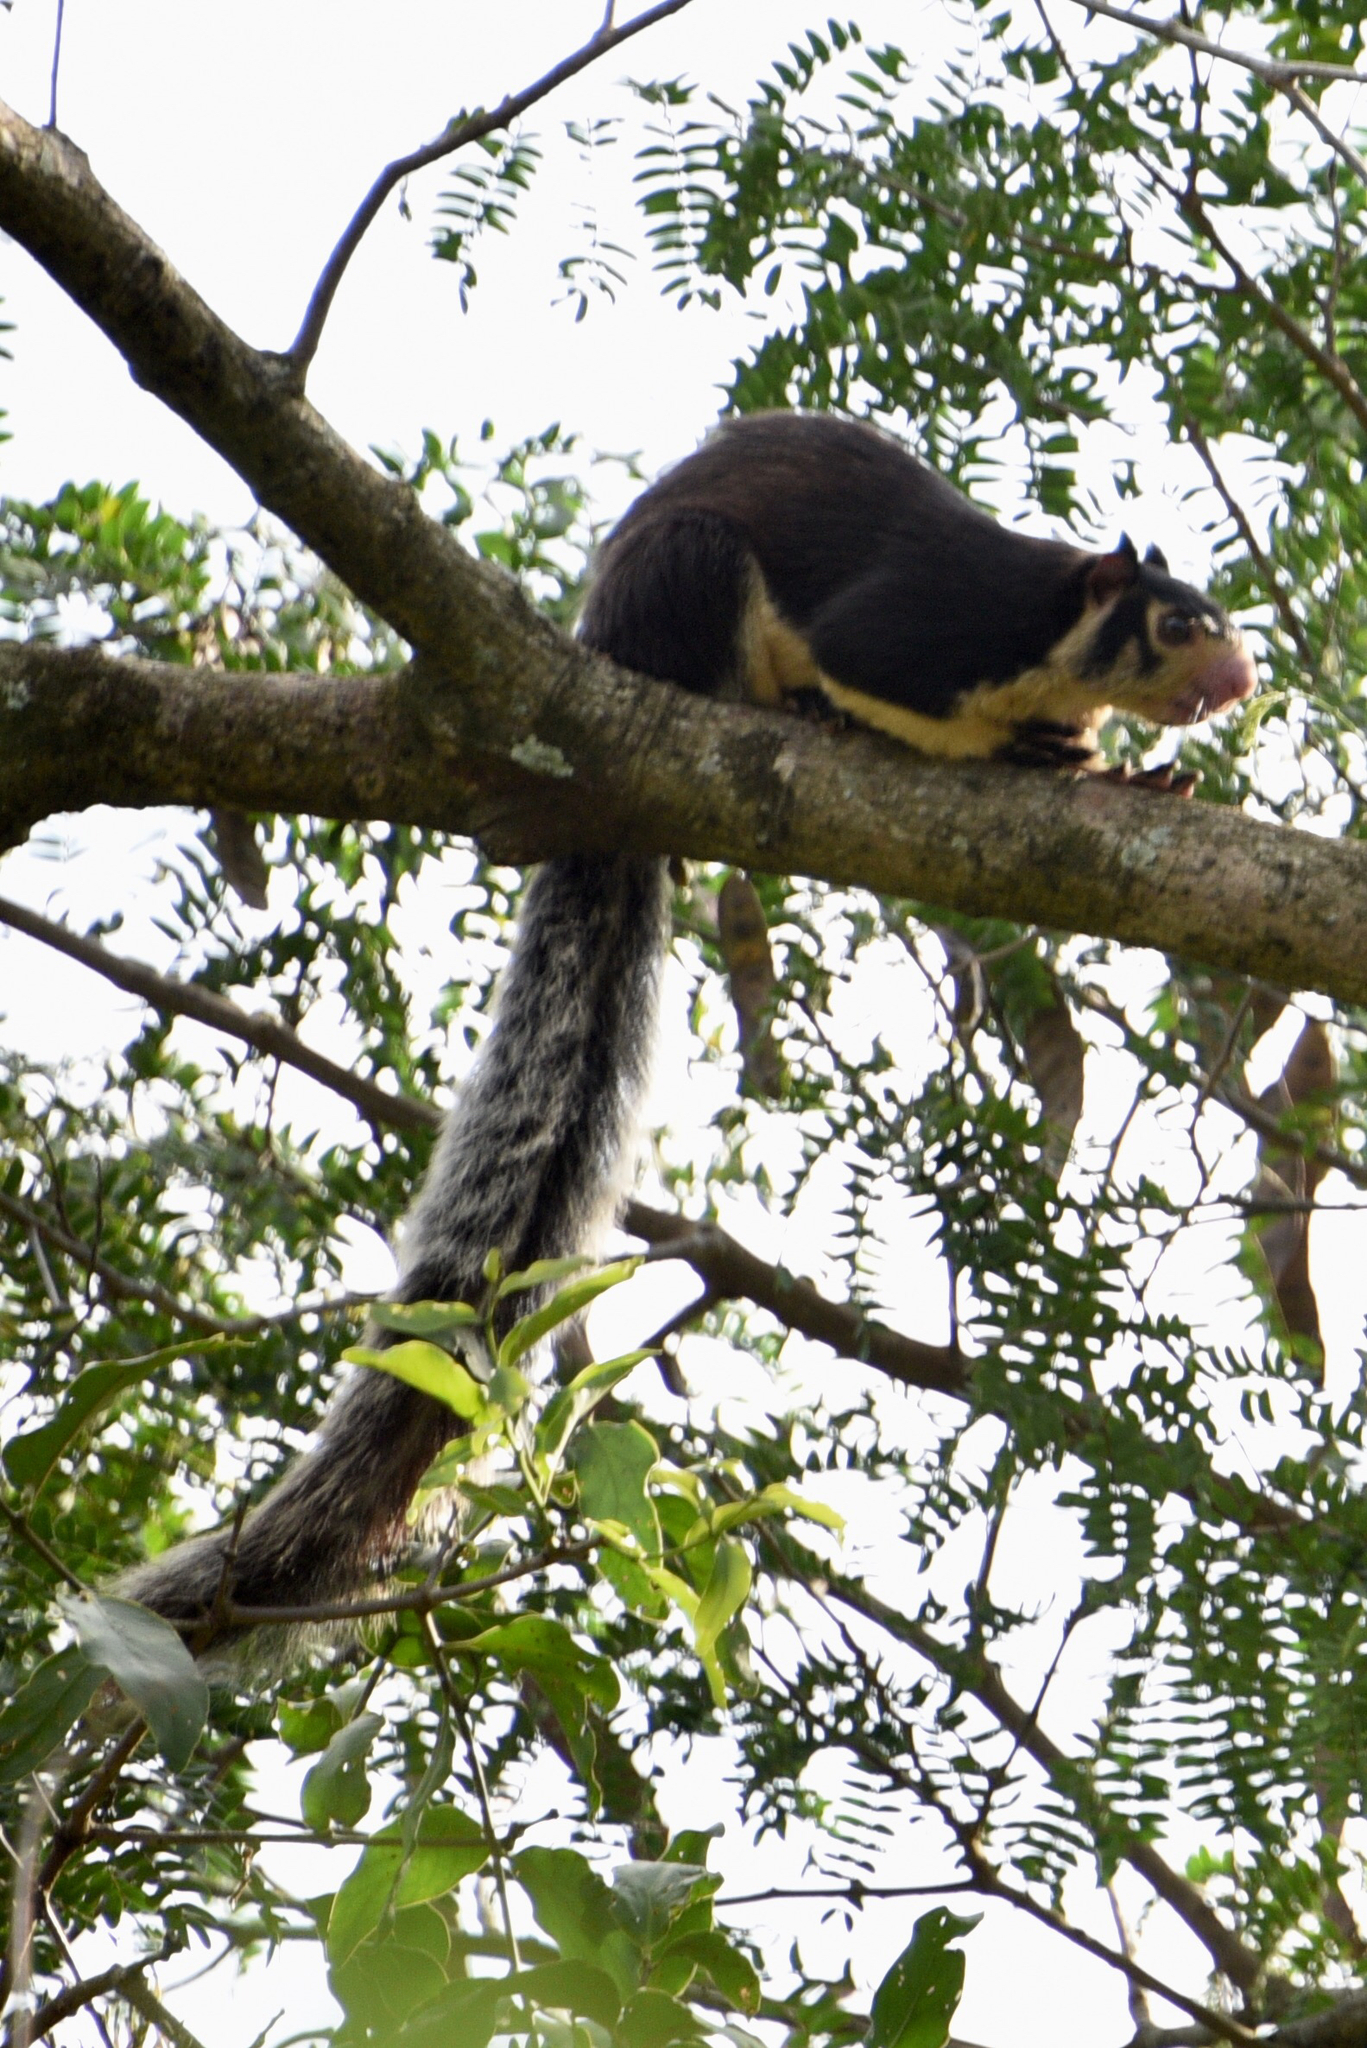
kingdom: Animalia
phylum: Chordata
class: Mammalia
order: Rodentia
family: Sciuridae
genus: Ratufa
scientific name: Ratufa macroura
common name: Sri lankan giant squirrel
